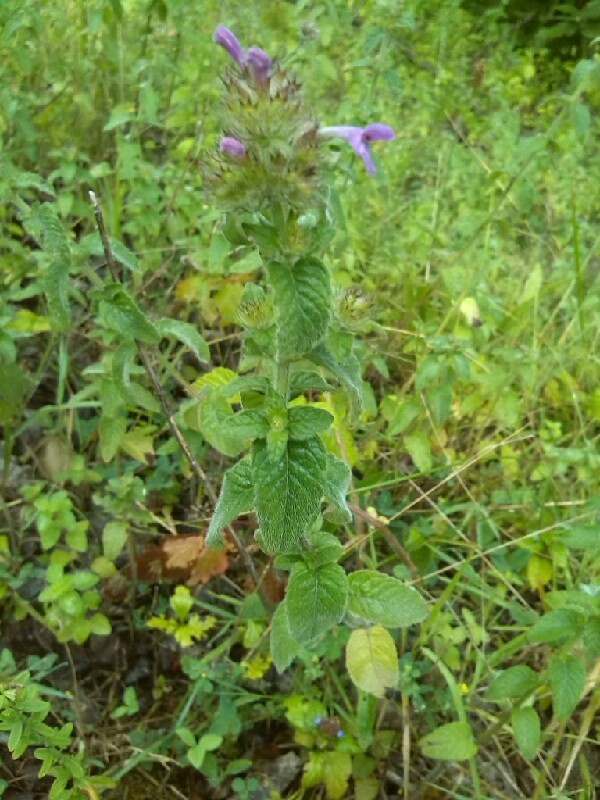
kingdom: Plantae
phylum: Tracheophyta
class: Magnoliopsida
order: Lamiales
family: Lamiaceae
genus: Clinopodium
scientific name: Clinopodium vulgare
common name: Wild basil
